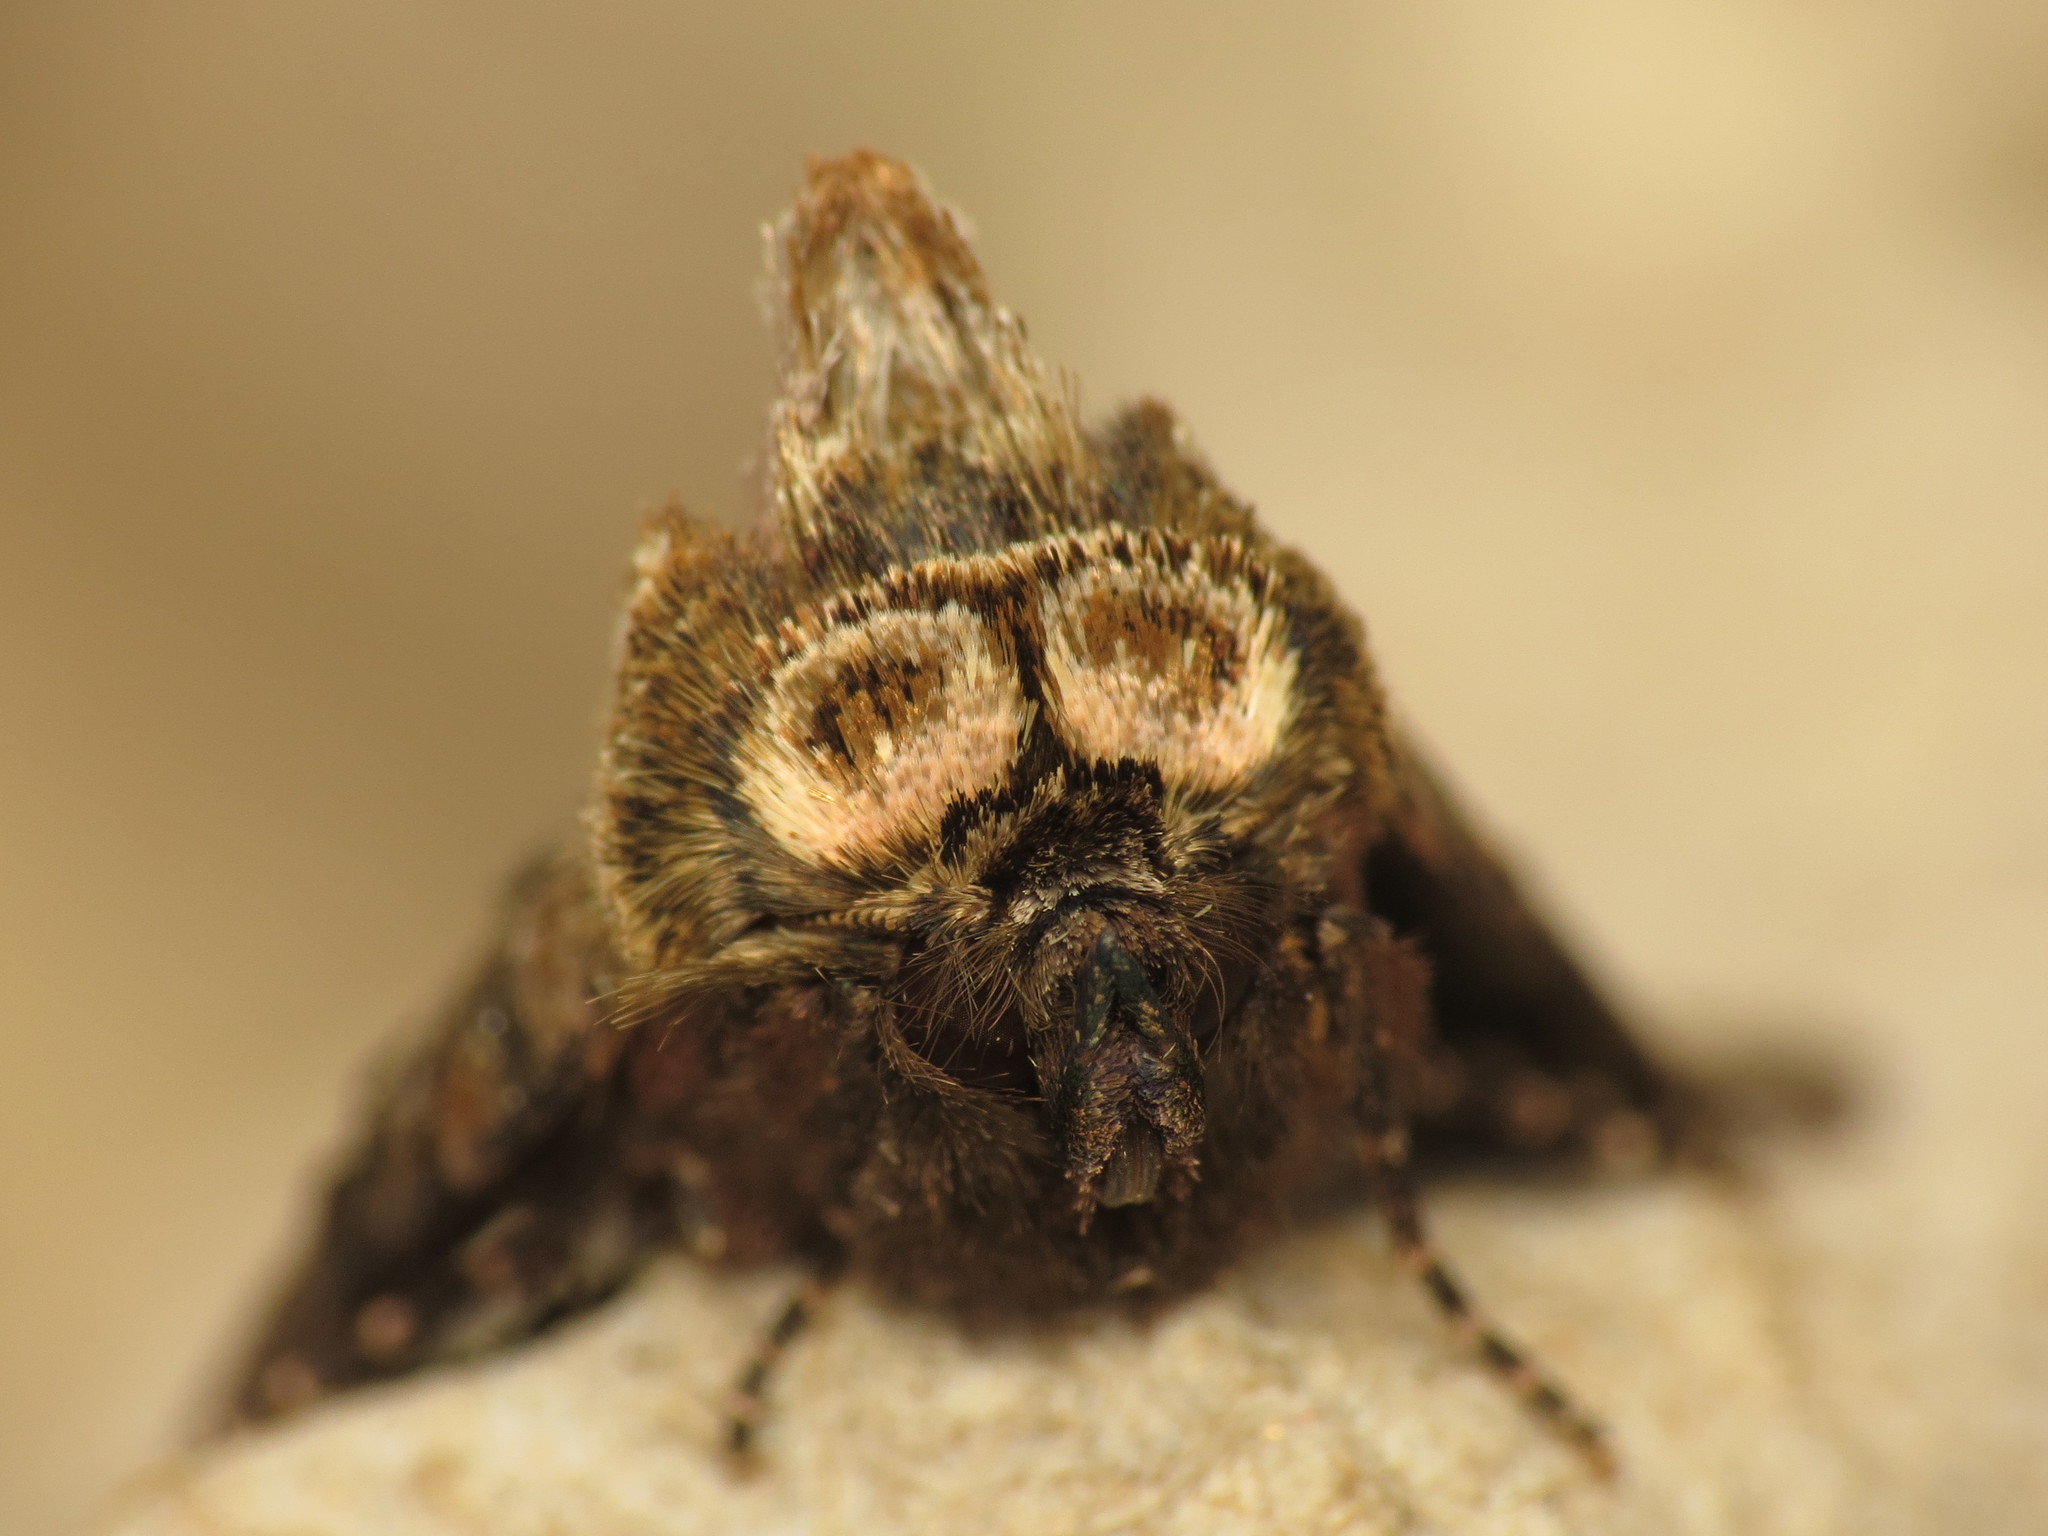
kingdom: Animalia
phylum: Arthropoda
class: Insecta
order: Lepidoptera
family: Noctuidae
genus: Abrostola
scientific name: Abrostola tripartita
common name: Spectacle
